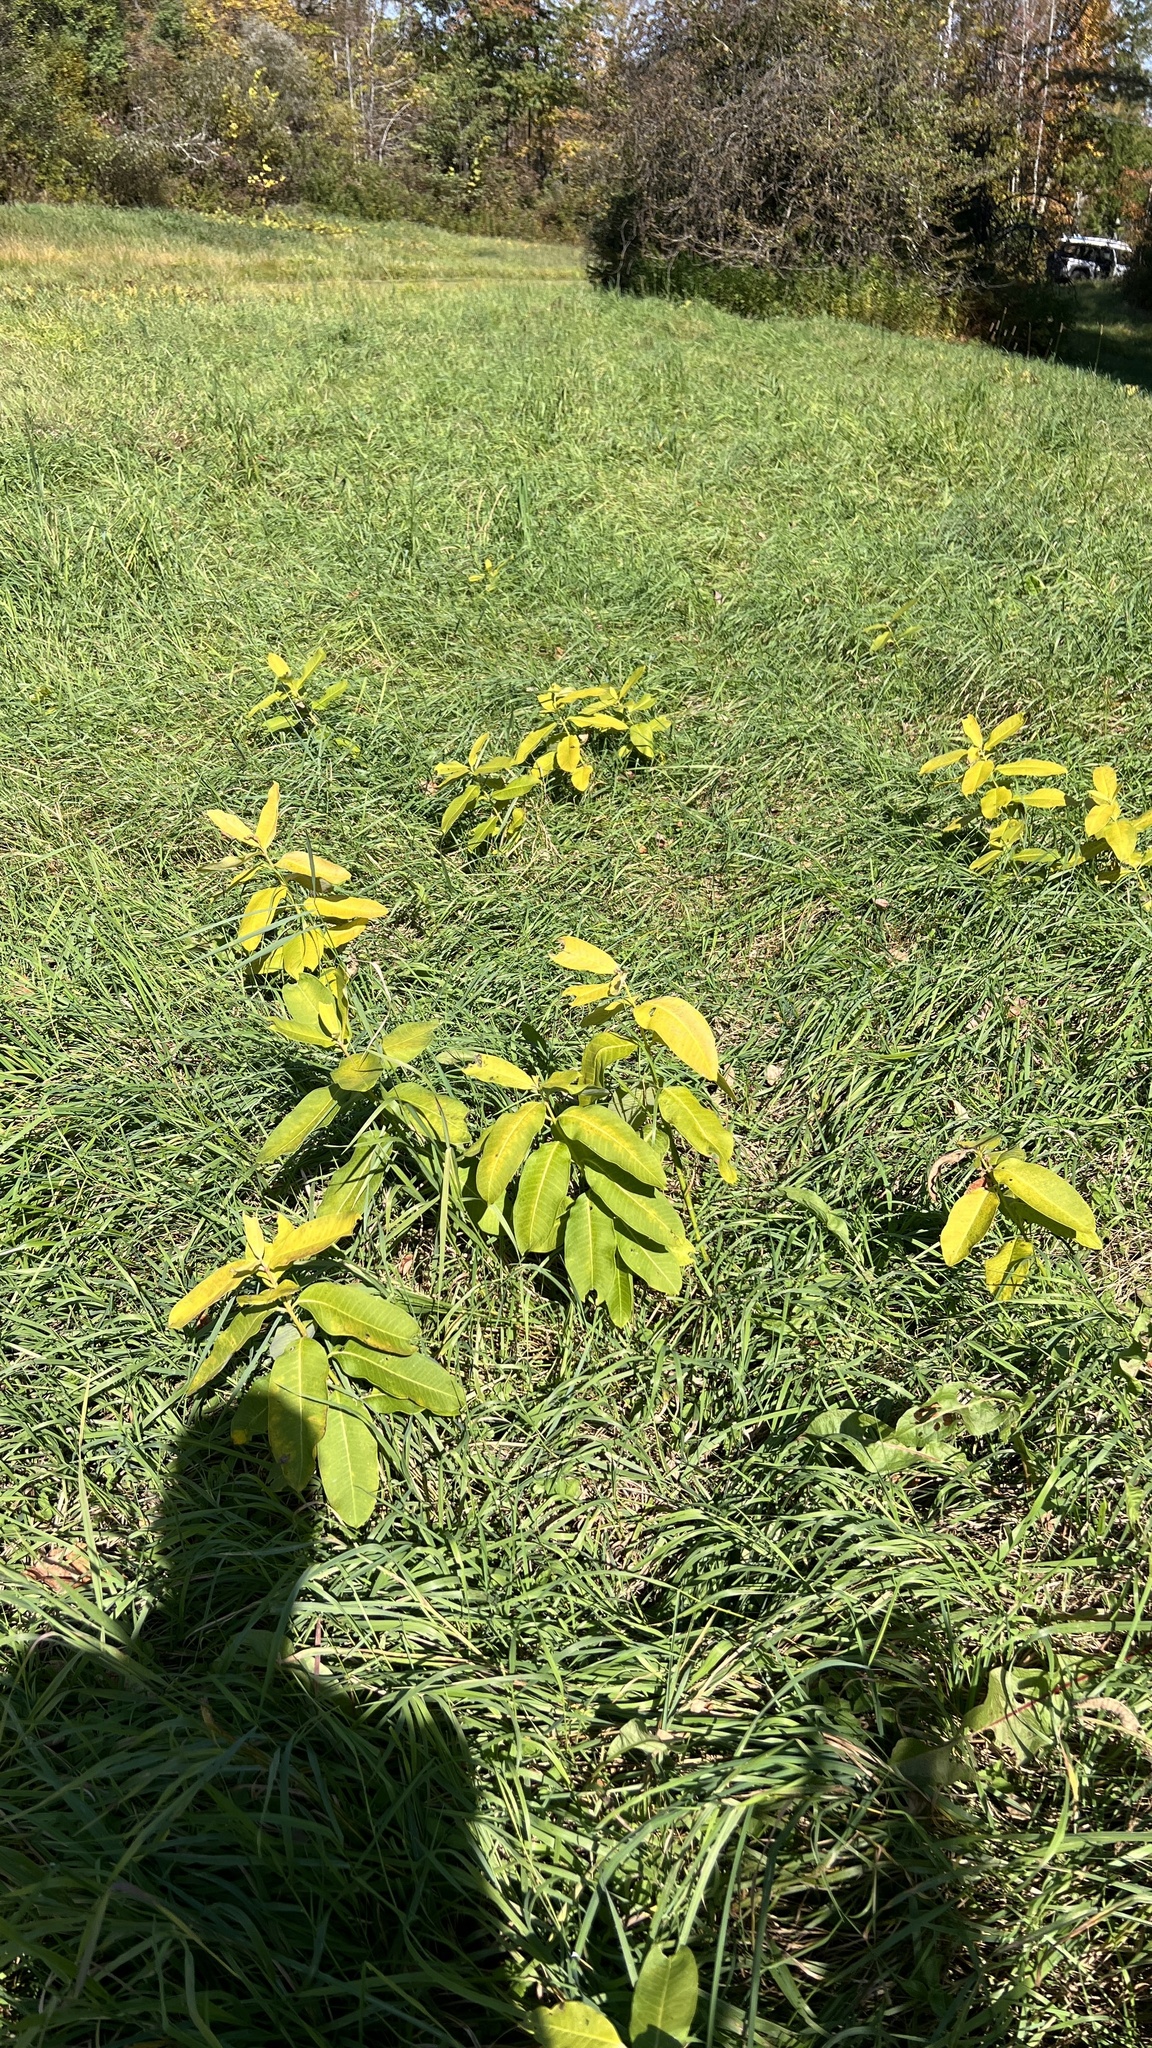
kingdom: Plantae
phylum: Tracheophyta
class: Magnoliopsida
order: Gentianales
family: Apocynaceae
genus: Asclepias
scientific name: Asclepias syriaca
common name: Common milkweed
